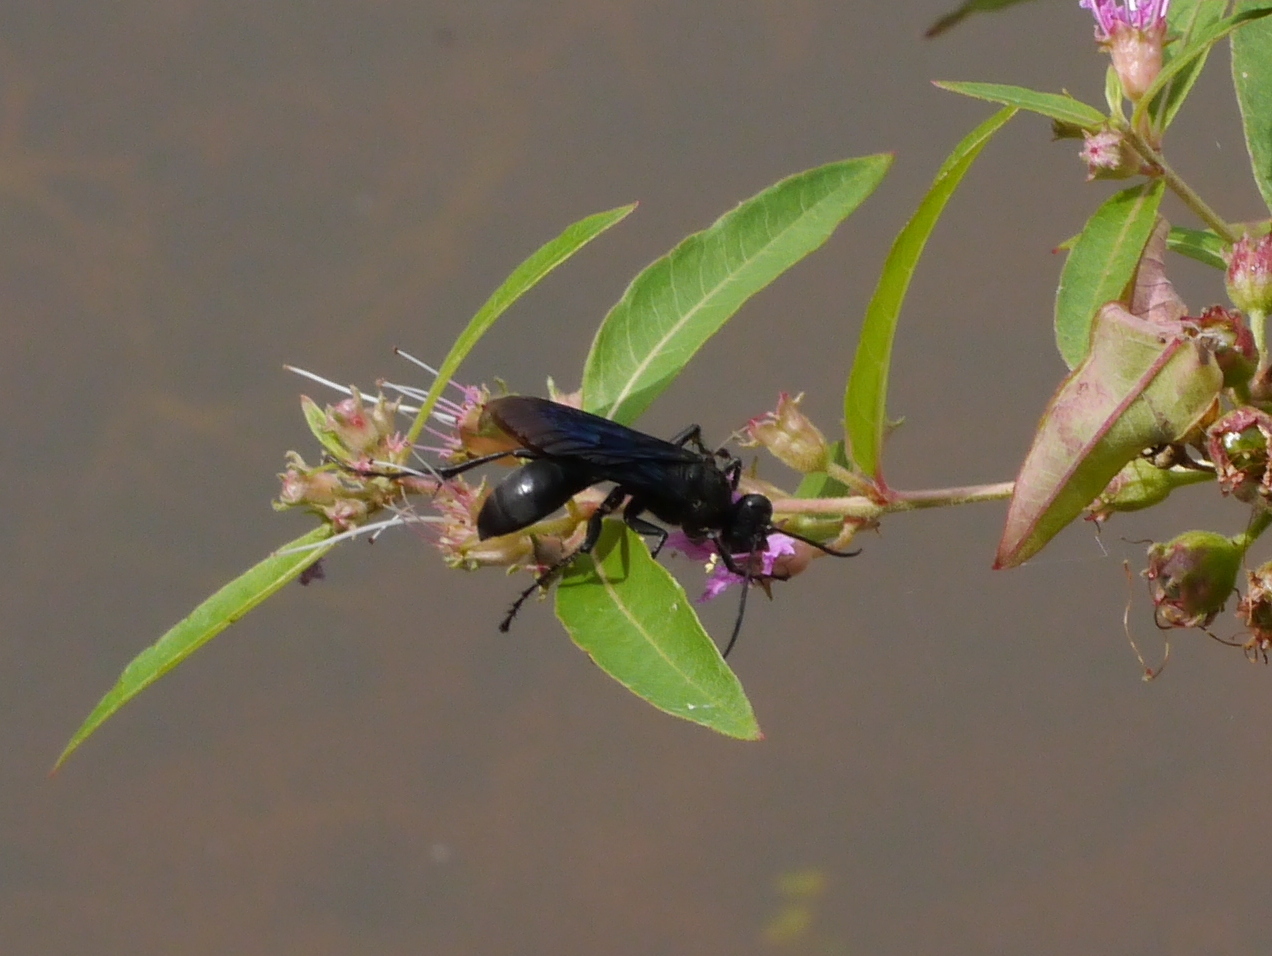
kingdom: Animalia
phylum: Arthropoda
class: Insecta
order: Hymenoptera
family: Sphecidae
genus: Sphex
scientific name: Sphex pensylvanicus
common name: Great black digger wasp
